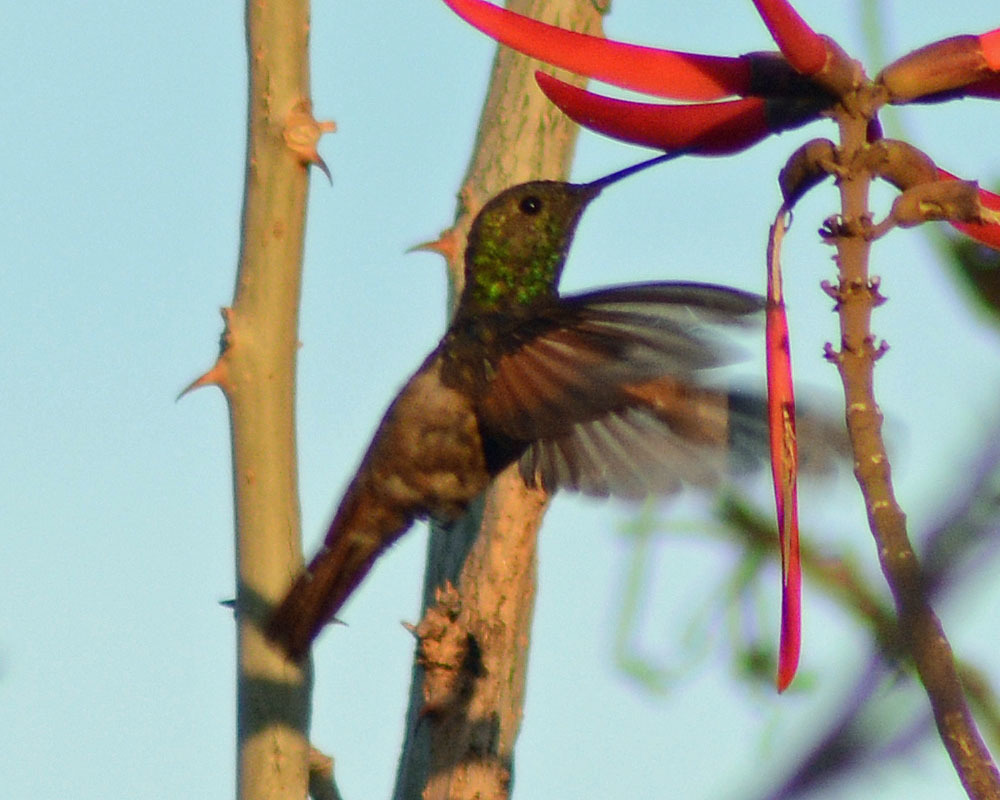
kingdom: Animalia
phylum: Chordata
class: Aves
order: Apodiformes
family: Trochilidae
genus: Saucerottia
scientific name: Saucerottia beryllina
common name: Berylline hummingbird
